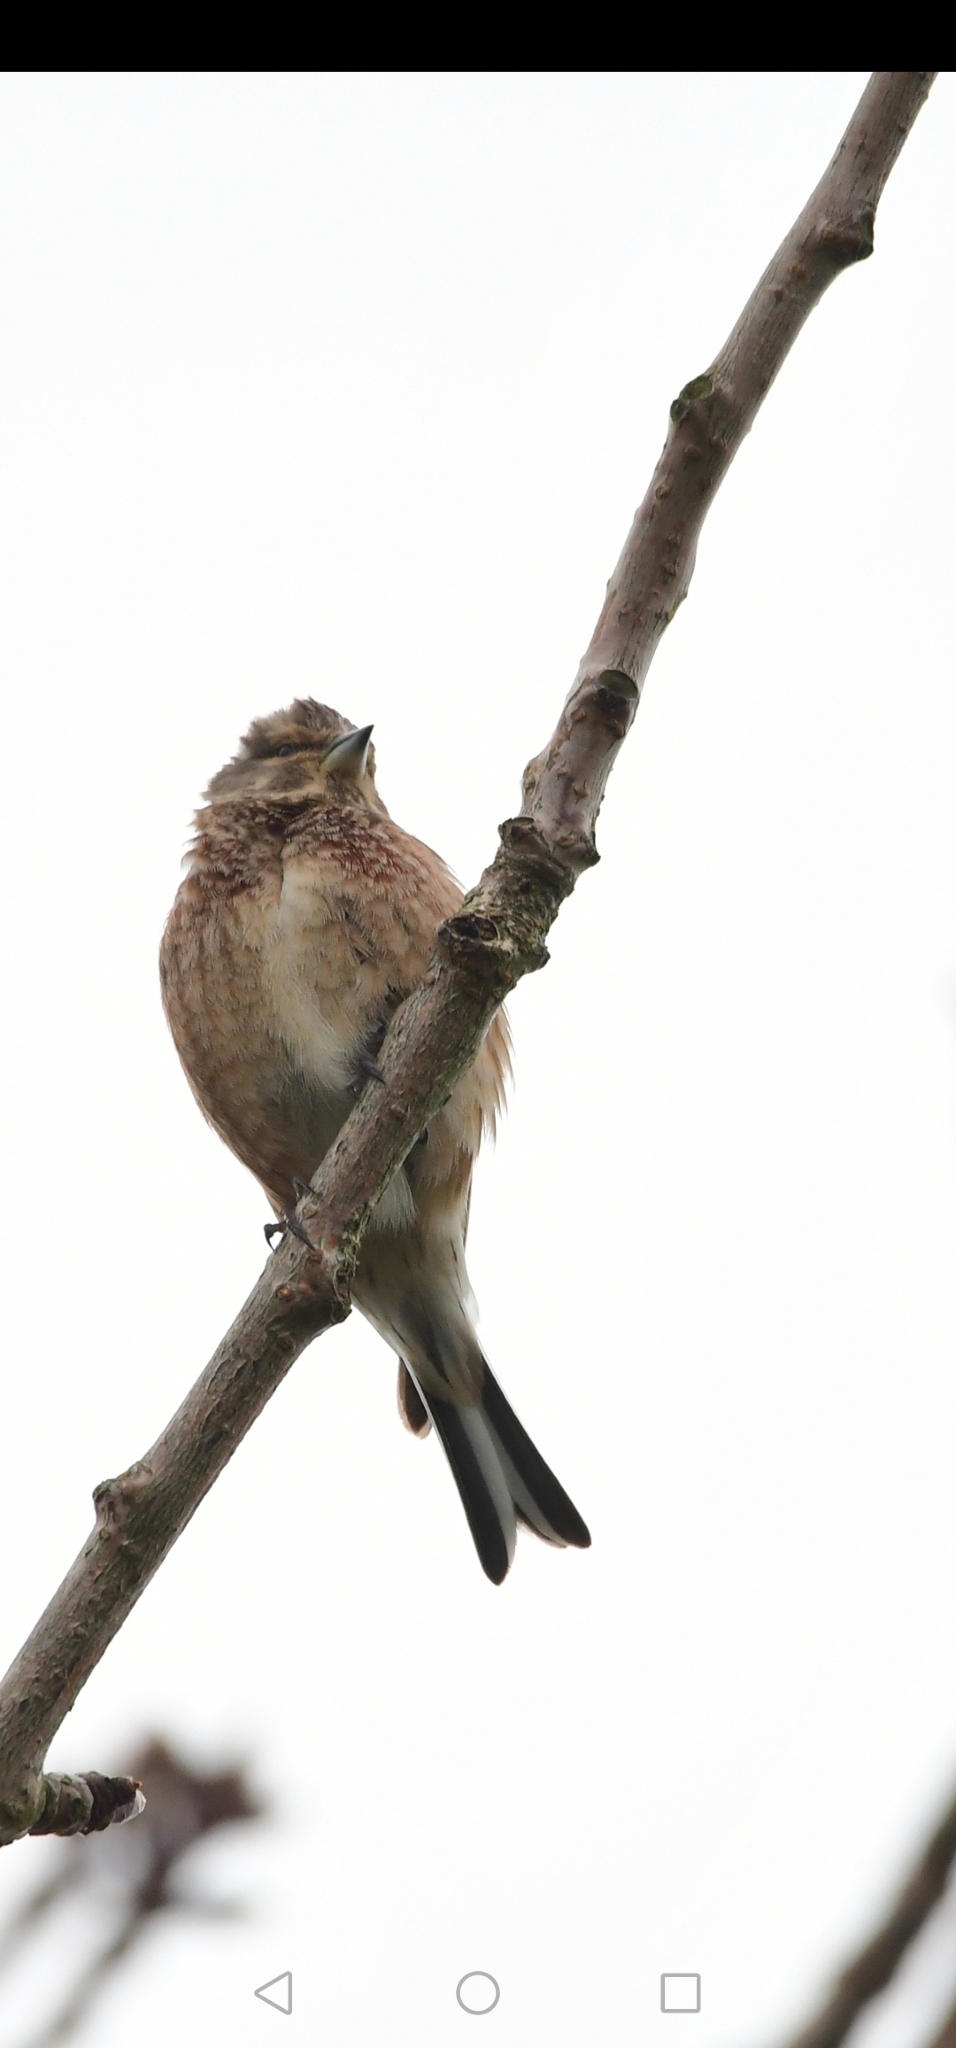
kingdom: Animalia
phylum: Chordata
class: Aves
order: Passeriformes
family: Fringillidae
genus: Linaria
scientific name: Linaria cannabina
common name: Common linnet
